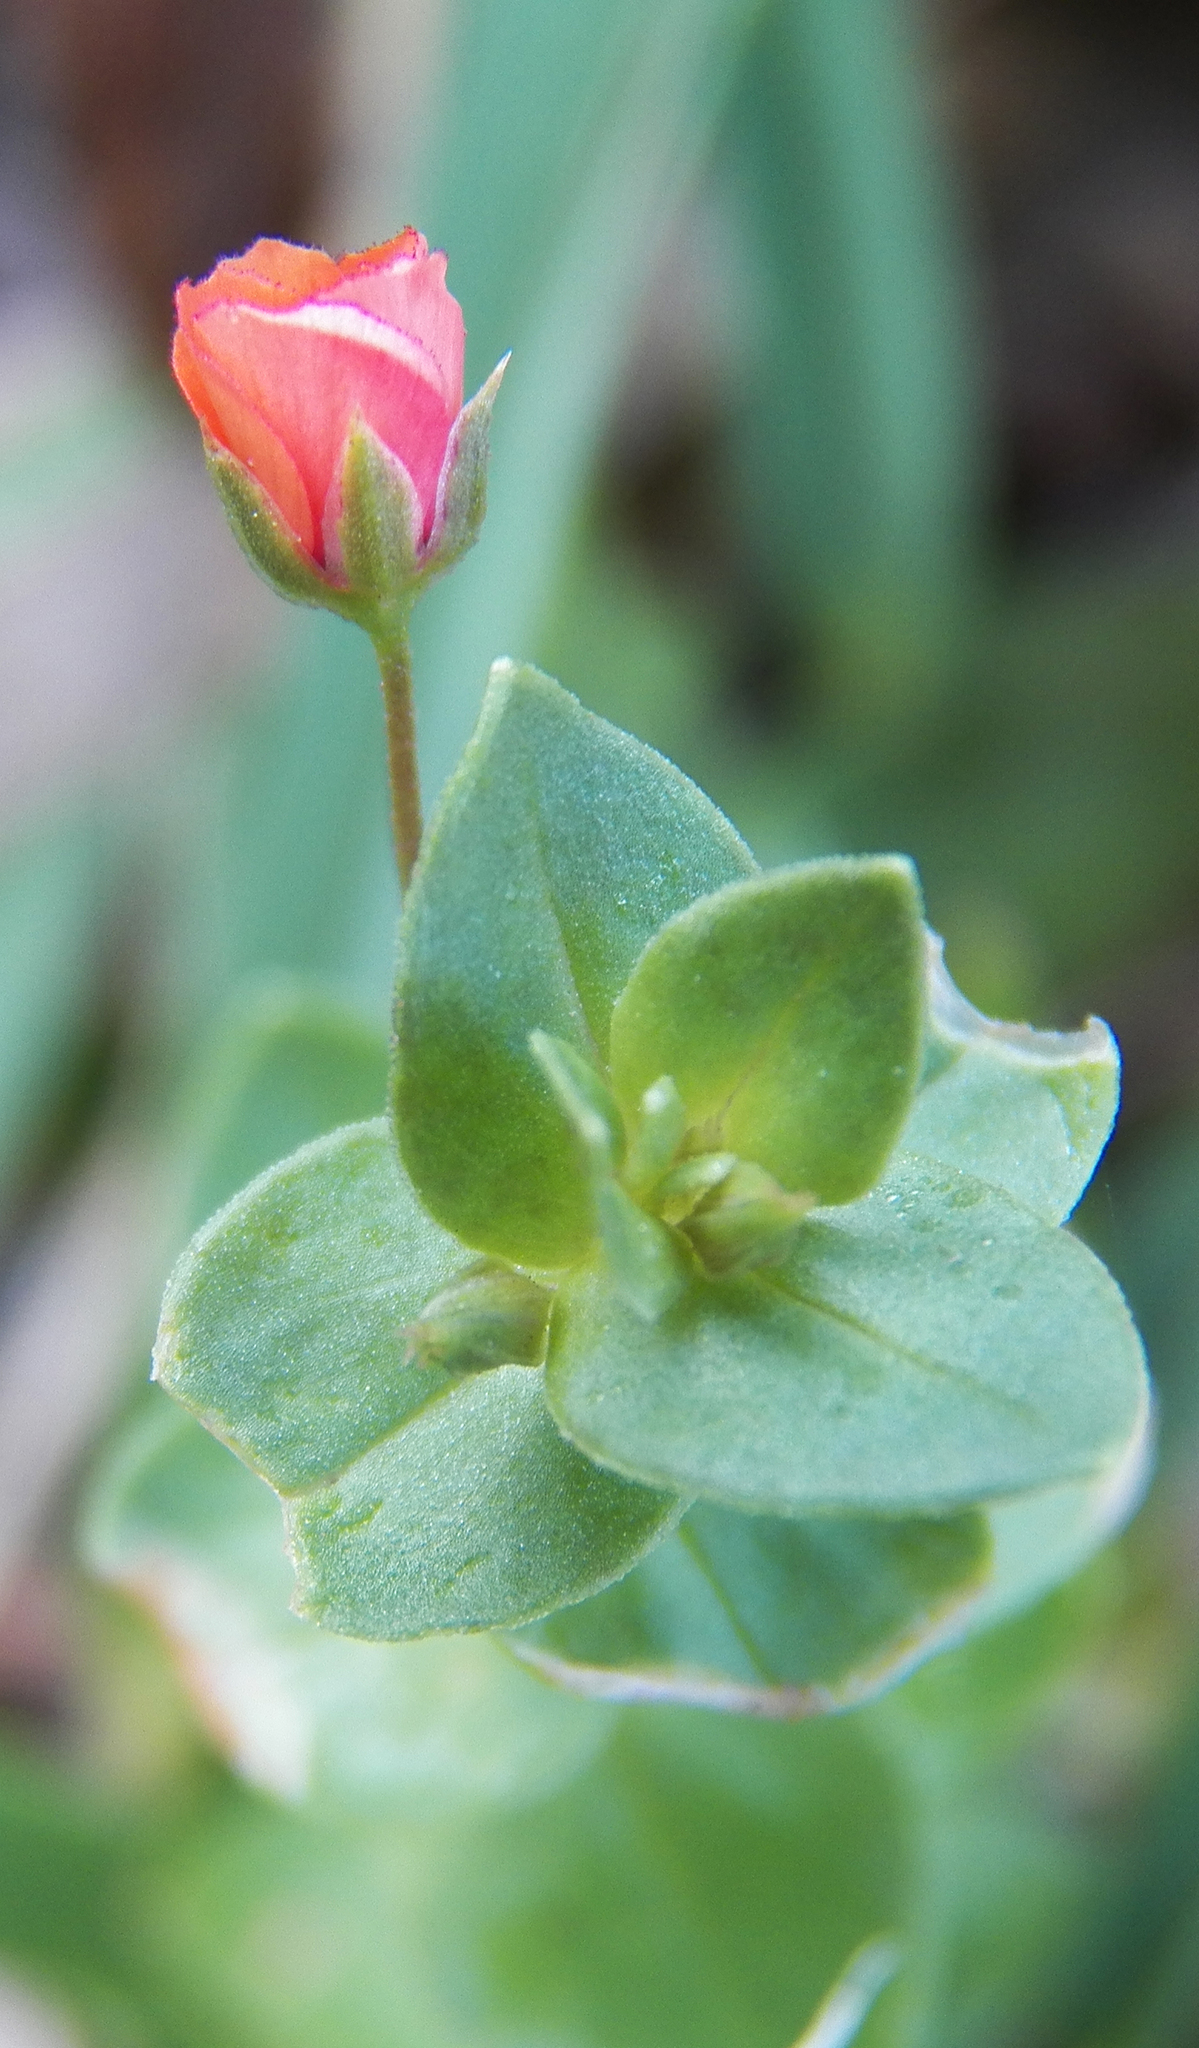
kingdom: Plantae
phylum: Tracheophyta
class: Magnoliopsida
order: Ericales
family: Primulaceae
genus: Lysimachia
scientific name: Lysimachia arvensis
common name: Scarlet pimpernel
